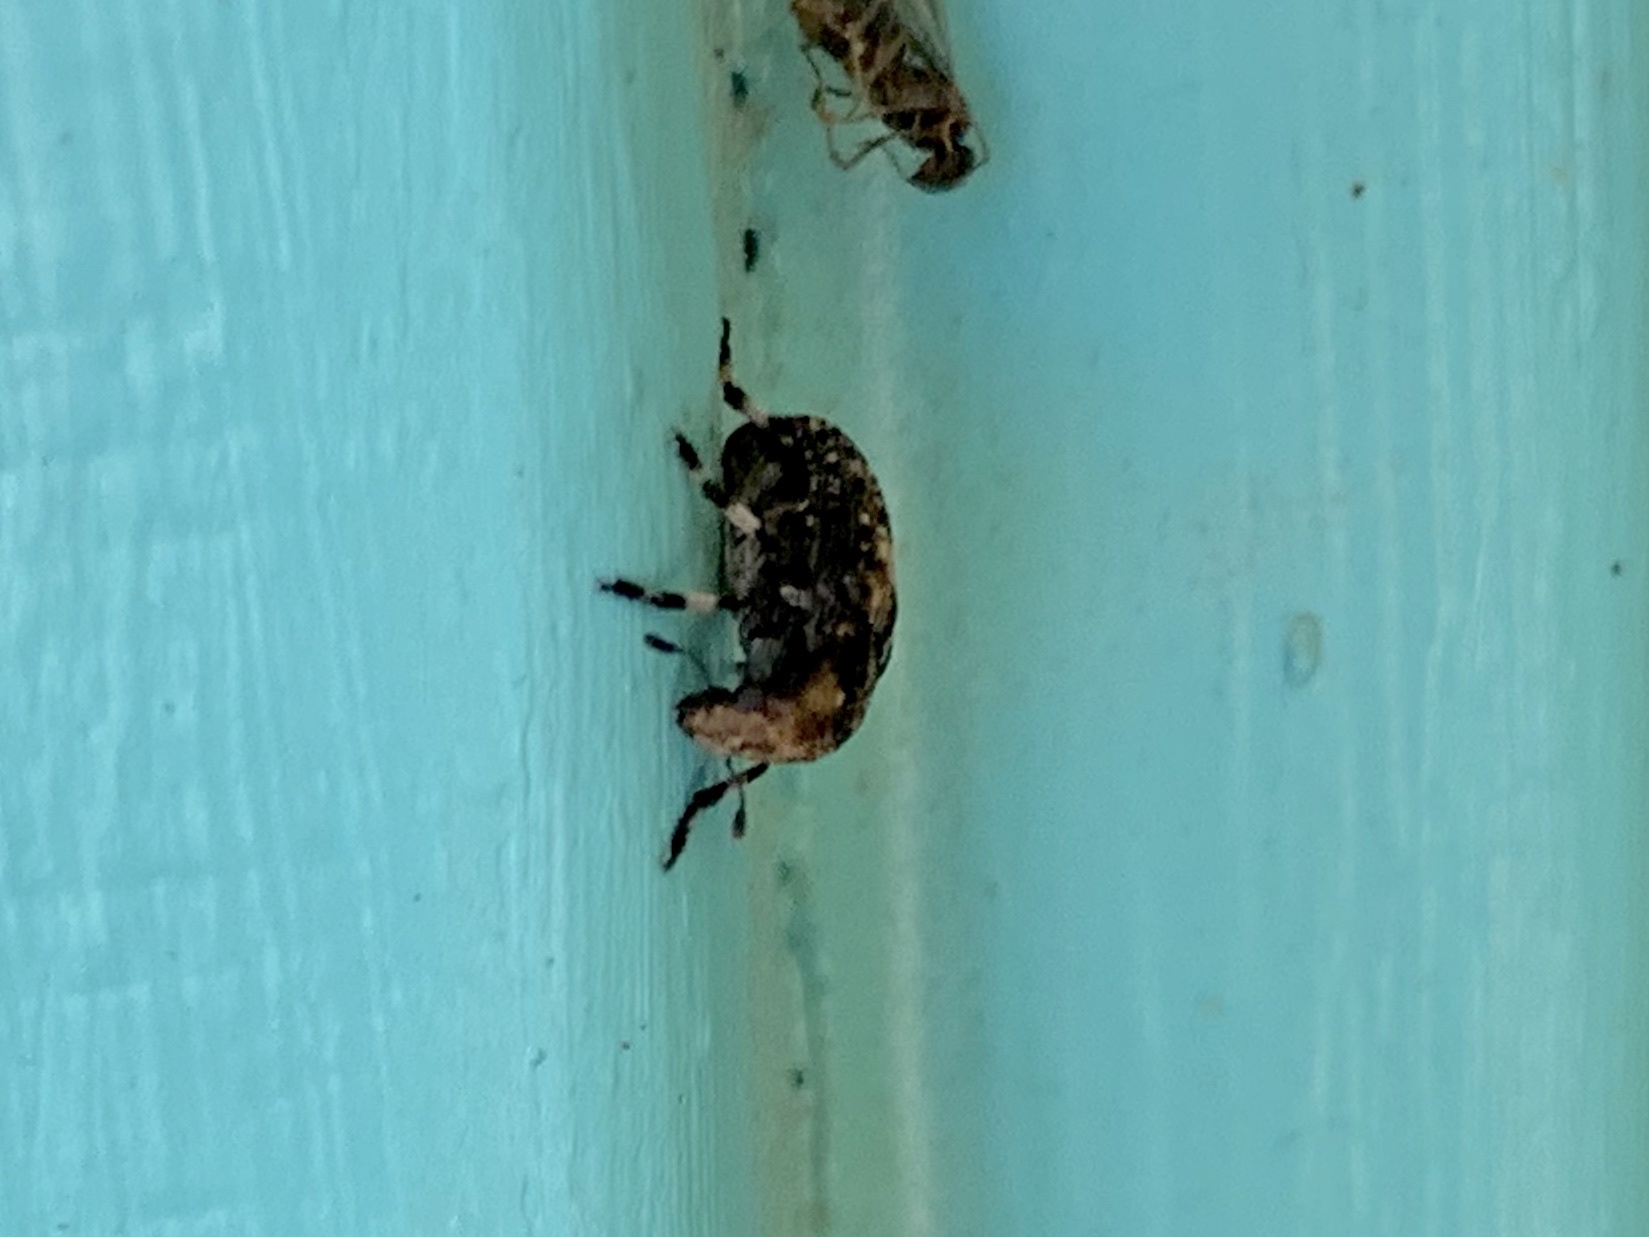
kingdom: Animalia
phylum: Arthropoda
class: Insecta
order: Coleoptera
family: Anthribidae
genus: Euparius
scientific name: Euparius subtessellatus
